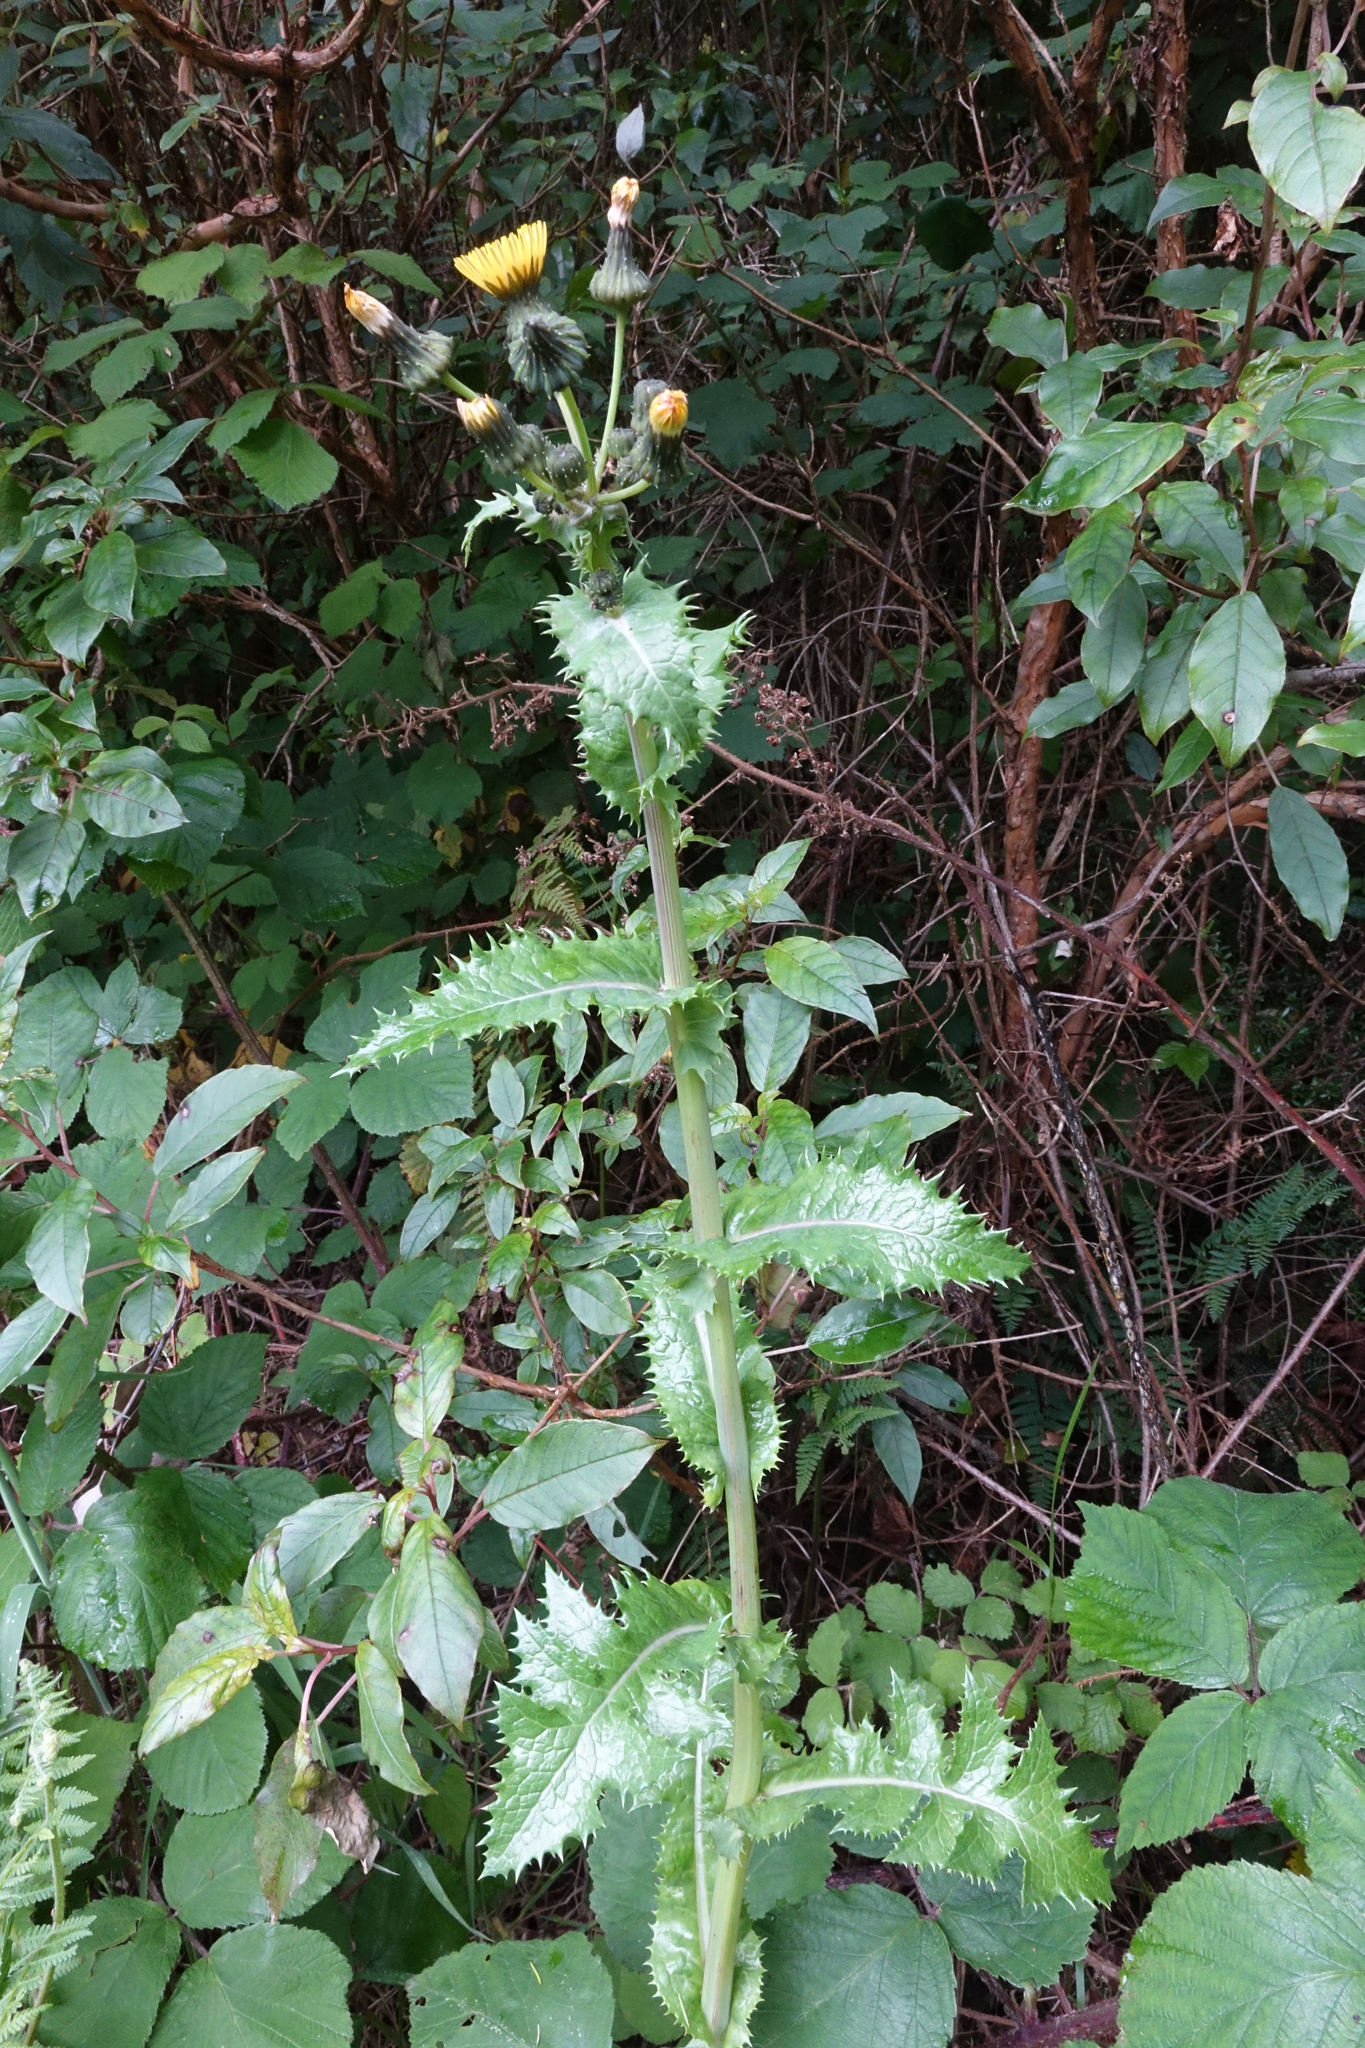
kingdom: Plantae
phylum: Tracheophyta
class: Magnoliopsida
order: Asterales
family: Asteraceae
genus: Sonchus
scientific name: Sonchus asper
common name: Prickly sow-thistle
